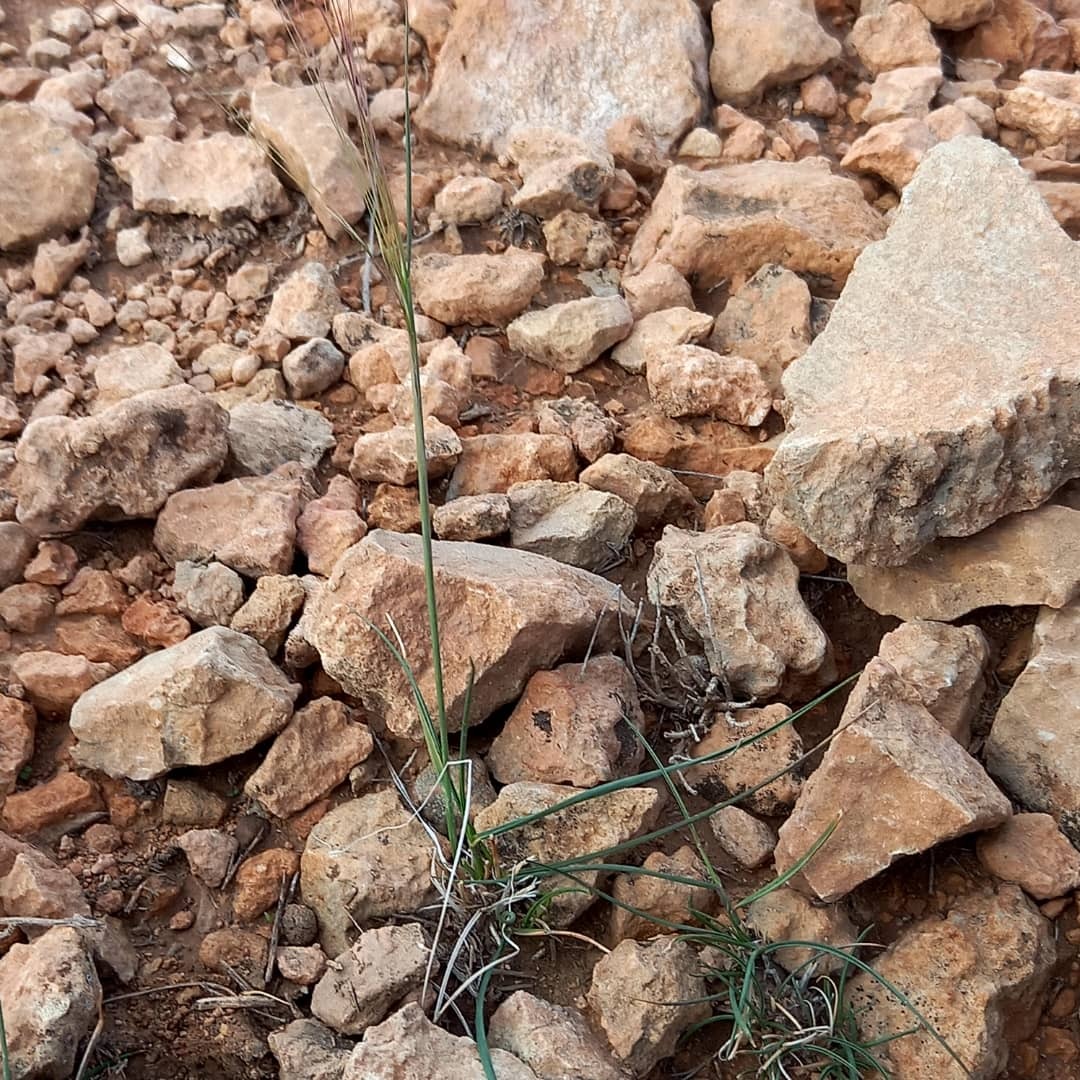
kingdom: Plantae
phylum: Tracheophyta
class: Liliopsida
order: Poales
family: Poaceae
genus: Achnatherum
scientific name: Achnatherum parviflorum
